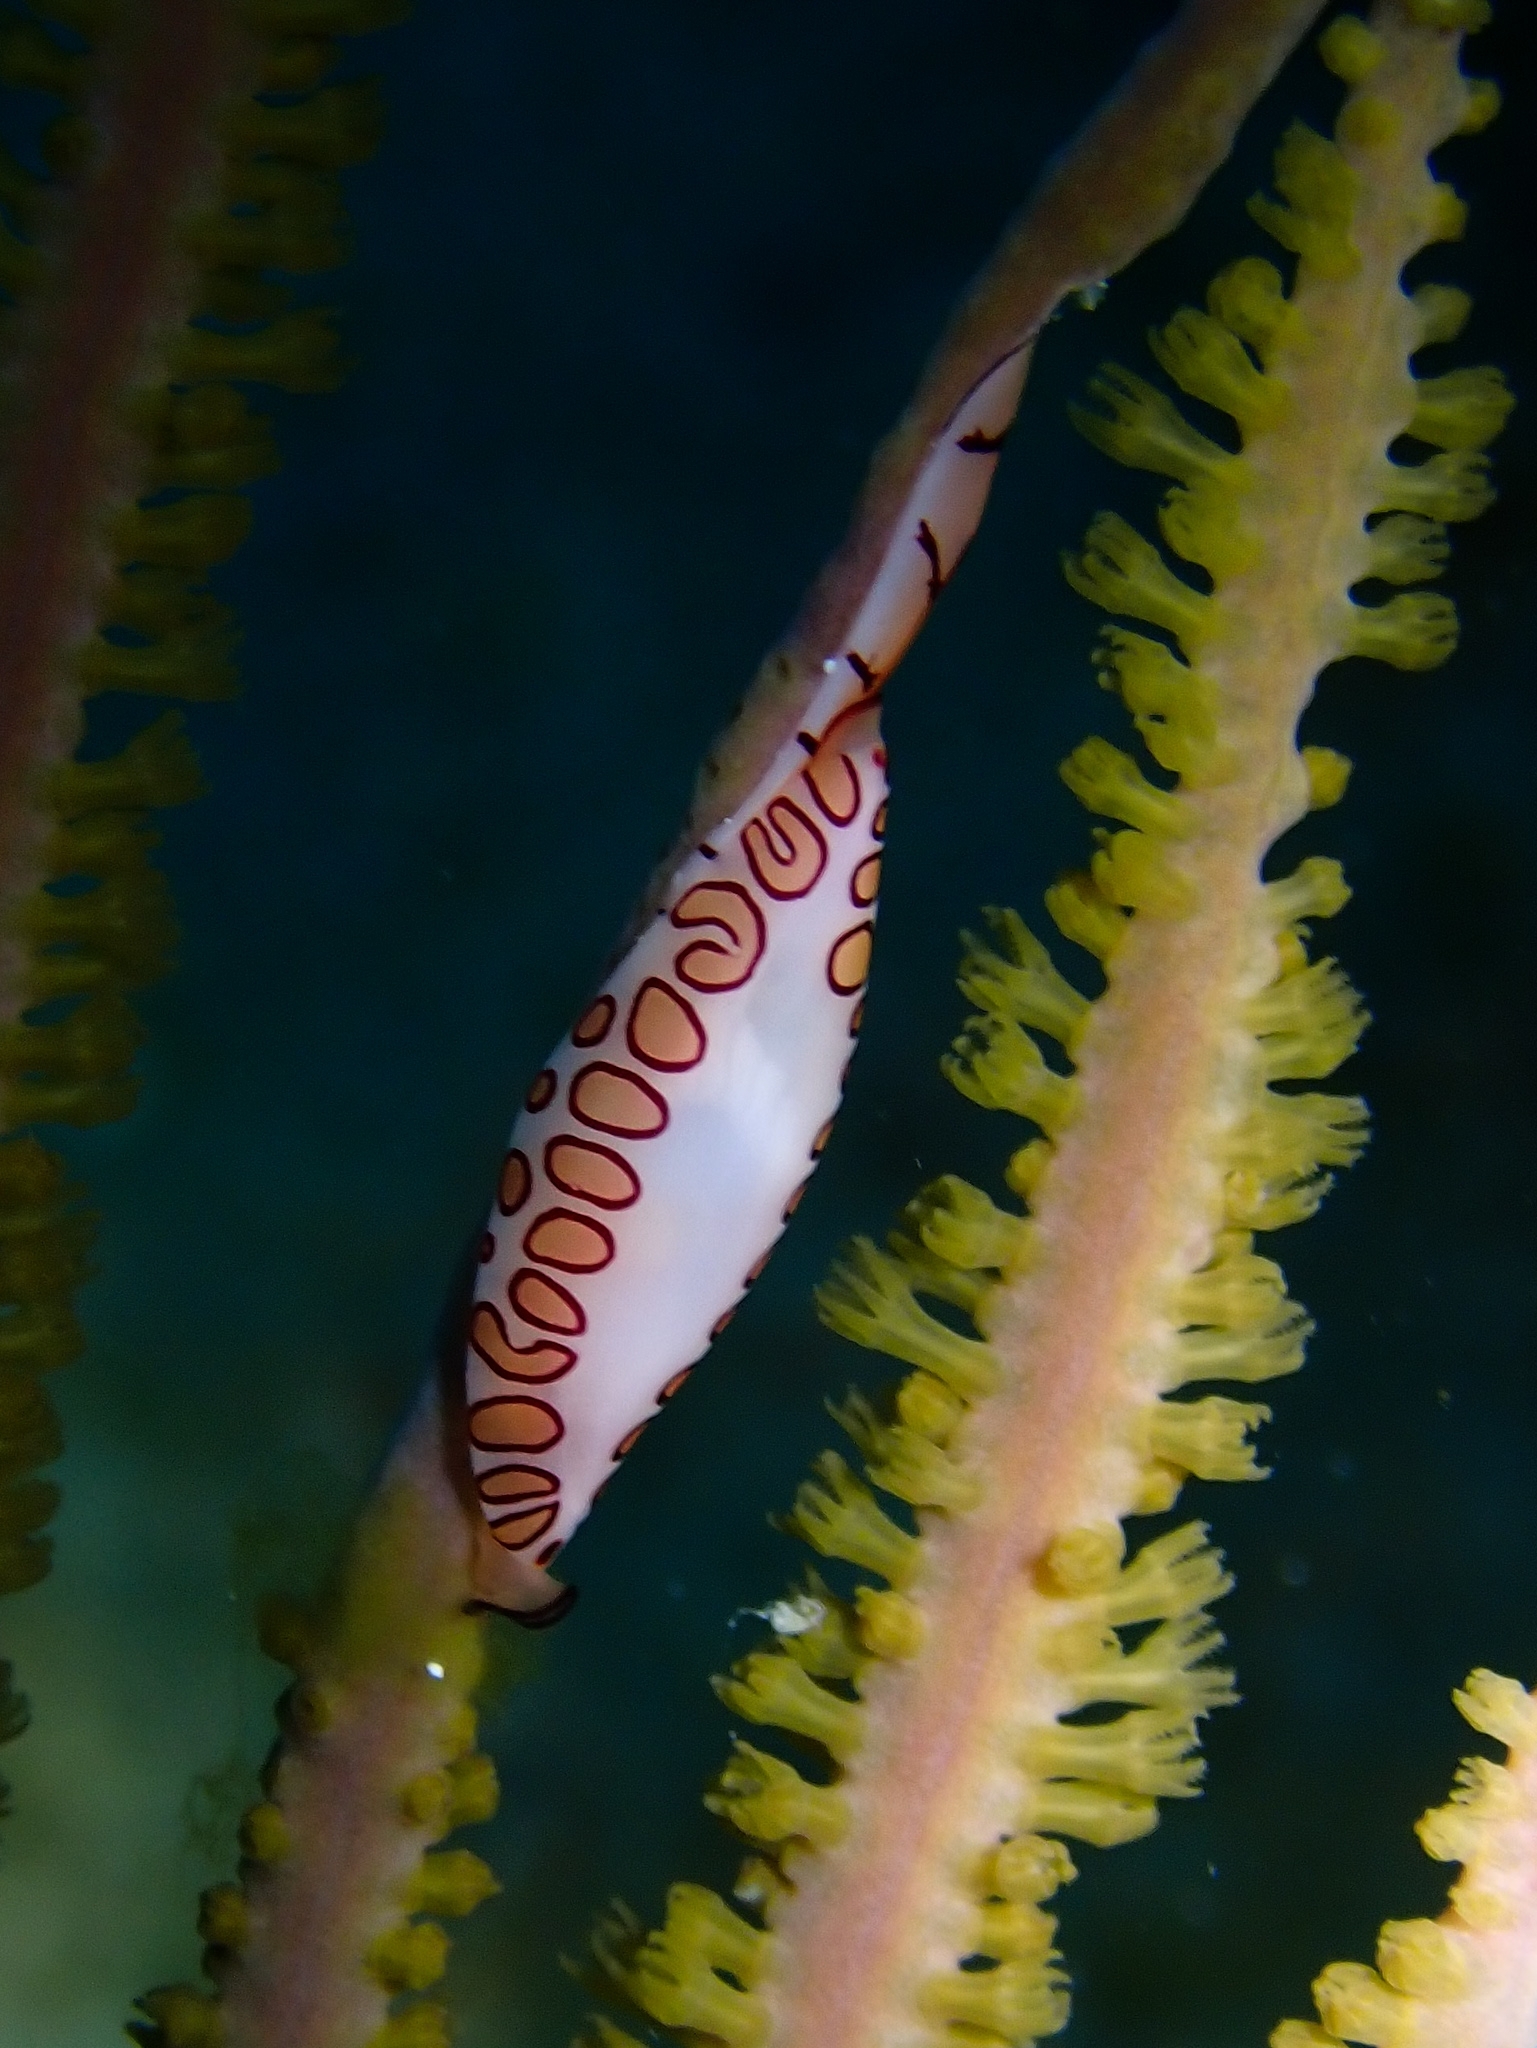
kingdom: Animalia
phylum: Mollusca
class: Gastropoda
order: Littorinimorpha
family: Ovulidae
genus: Cyphoma
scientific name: Cyphoma gibbosum
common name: Flamingo tongue
